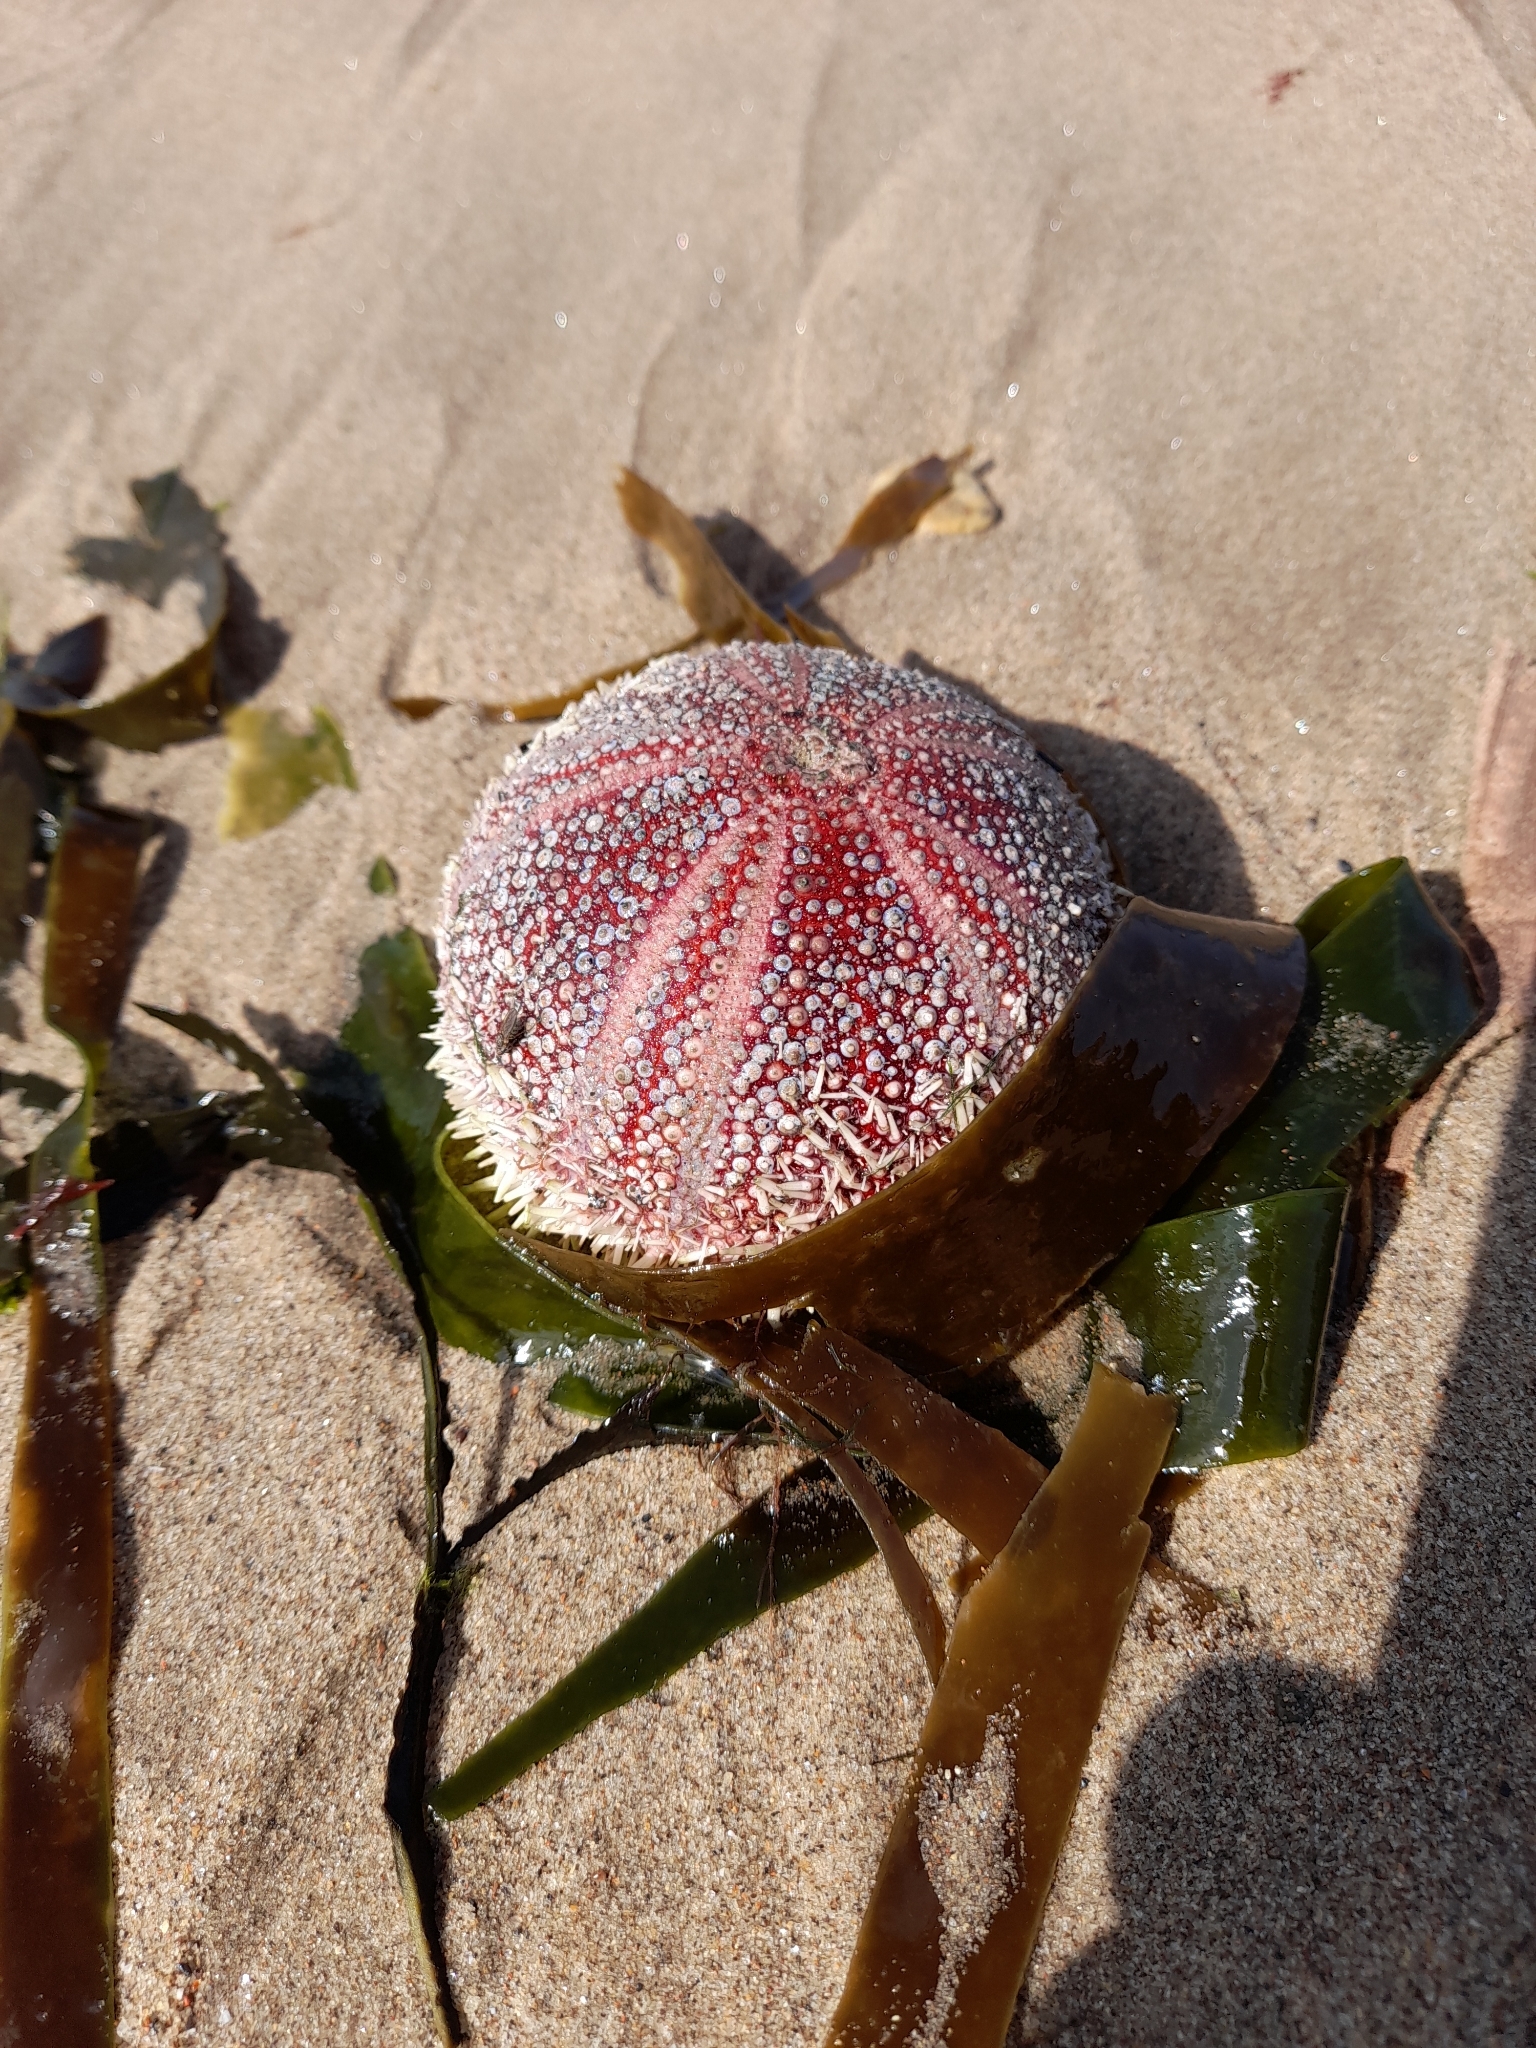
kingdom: Animalia
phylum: Echinodermata
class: Echinoidea
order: Camarodonta
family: Echinidae
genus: Echinus
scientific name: Echinus esculentus
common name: Edible sea urchin
